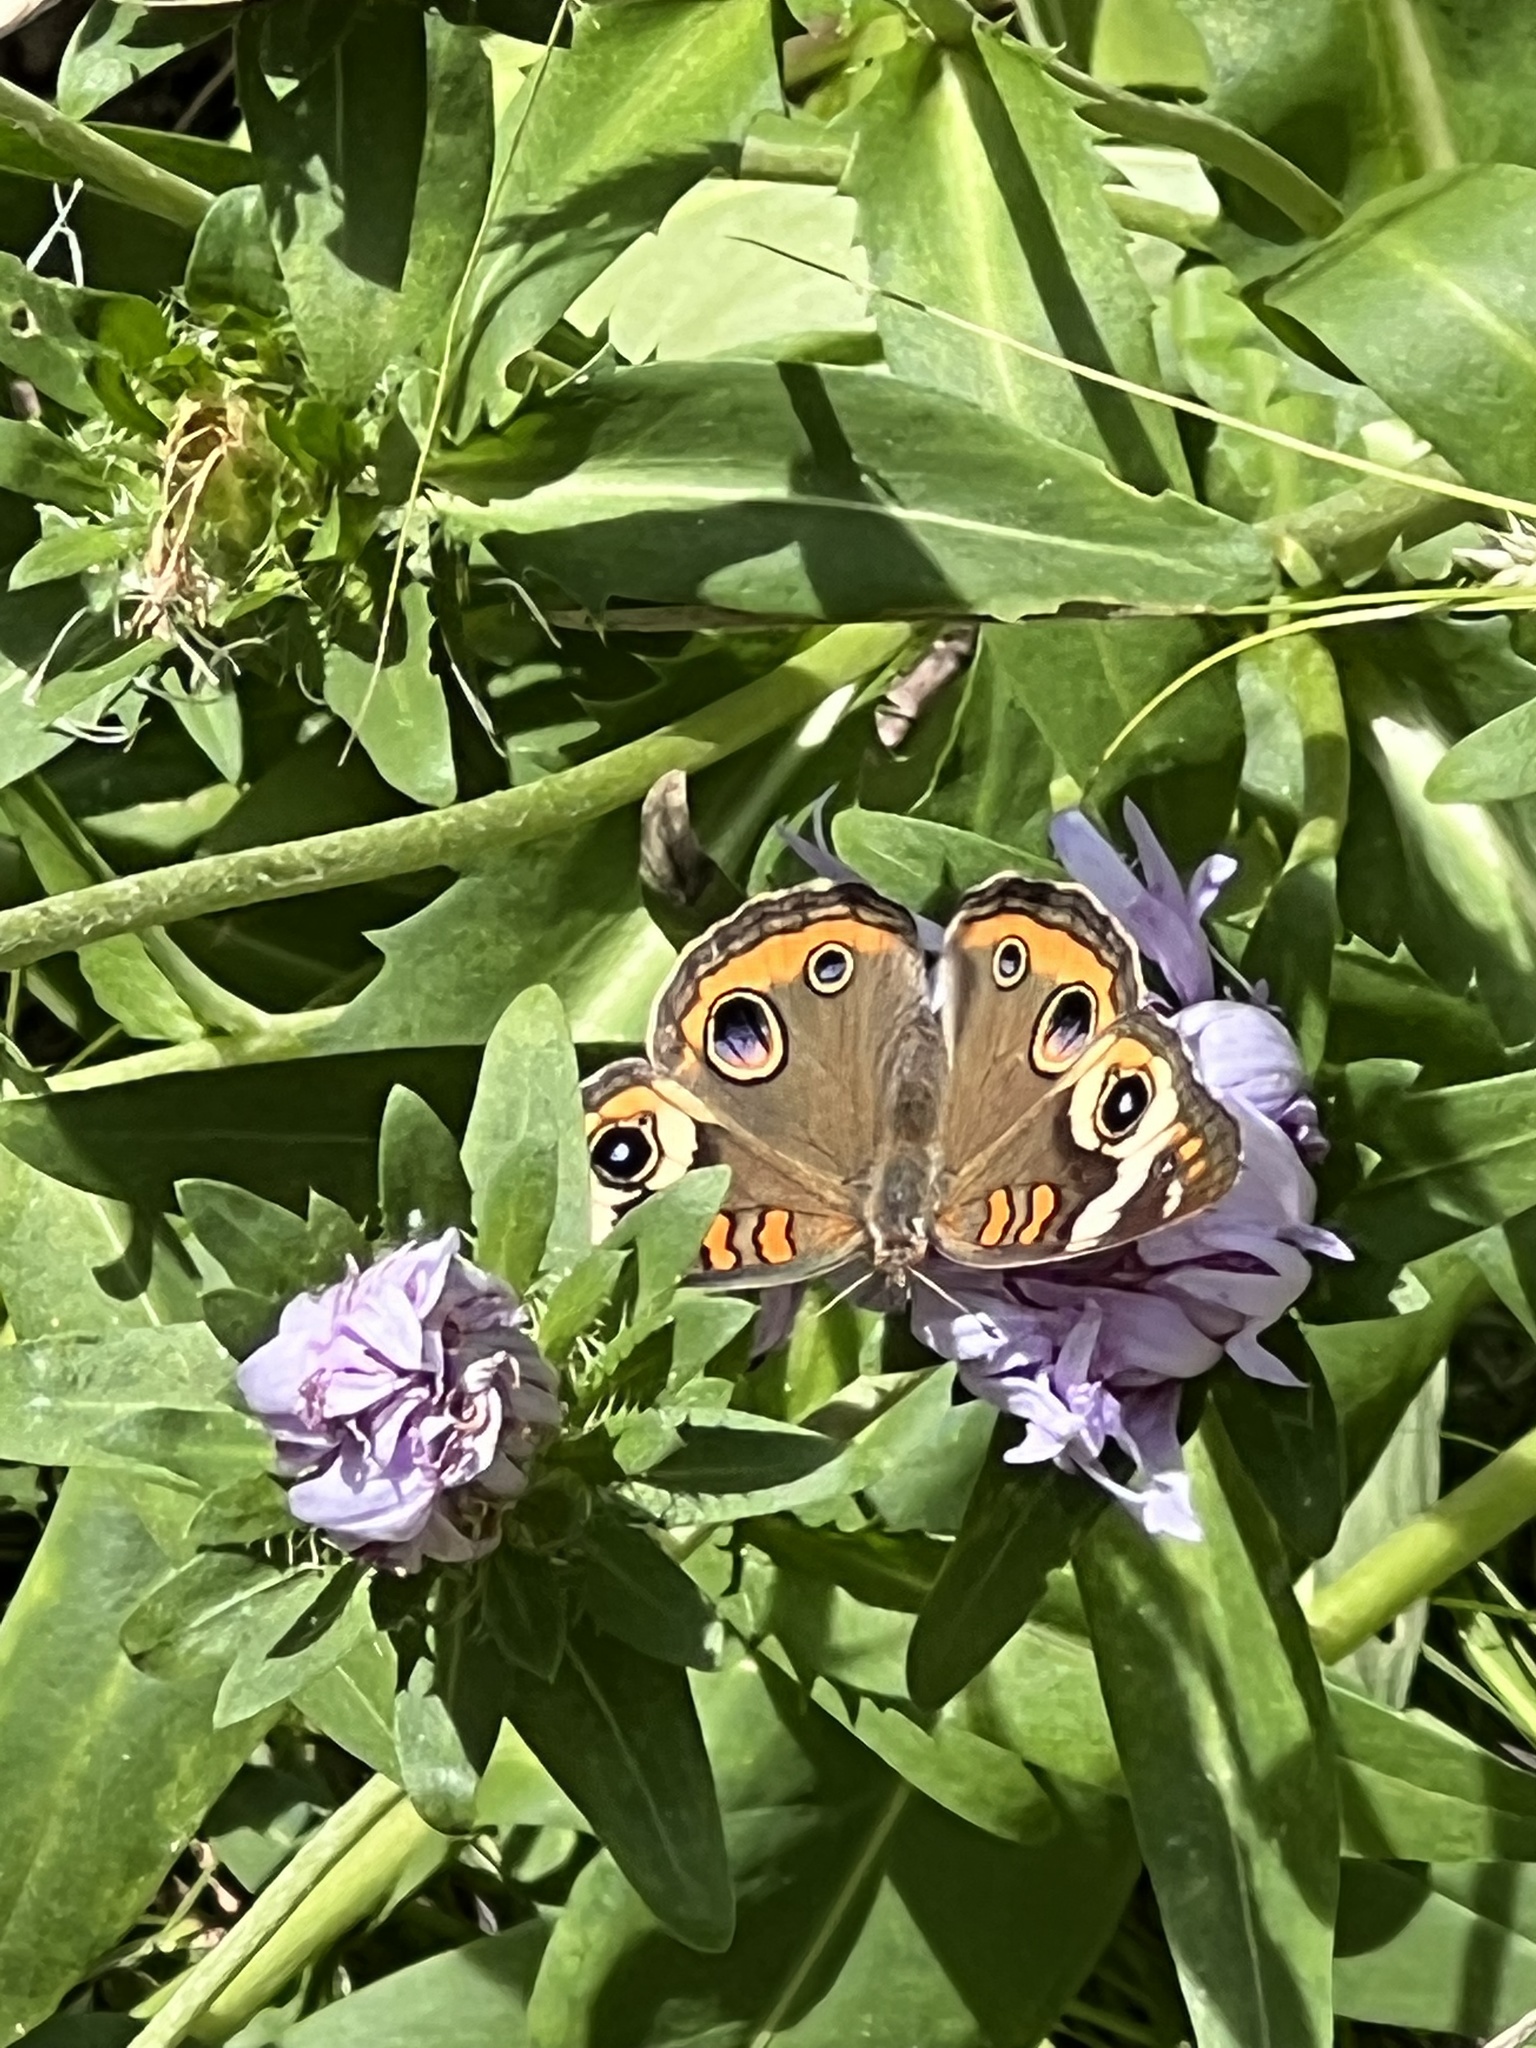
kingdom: Animalia
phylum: Arthropoda
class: Insecta
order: Lepidoptera
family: Nymphalidae
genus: Junonia
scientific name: Junonia coenia
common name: Common buckeye
